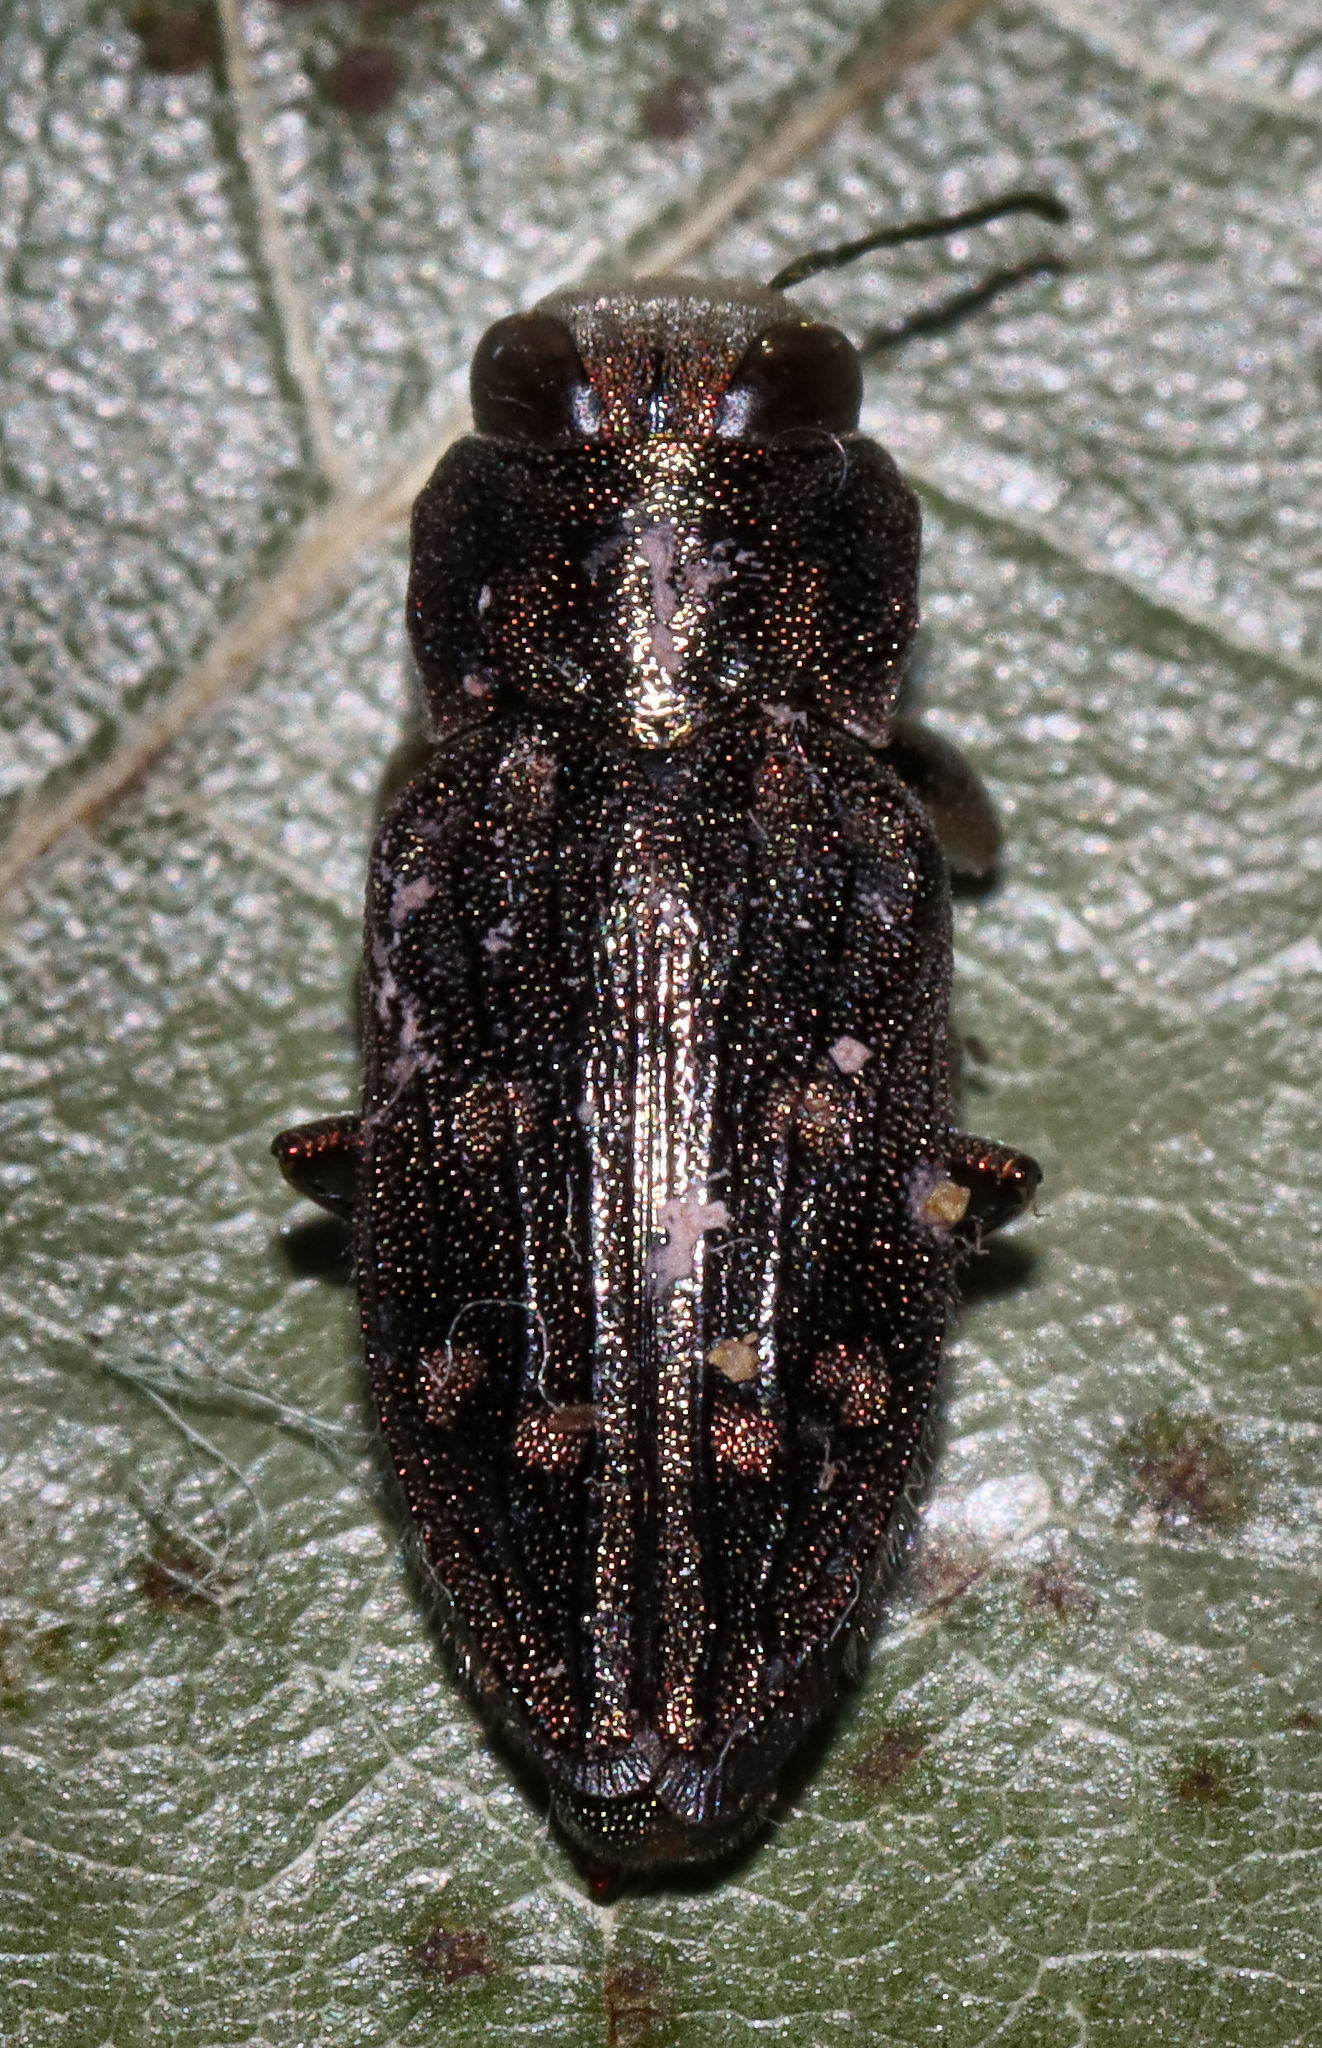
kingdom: Animalia
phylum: Arthropoda
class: Insecta
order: Coleoptera
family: Buprestidae
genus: Chrysobothris
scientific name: Chrysobothris viridiceps
